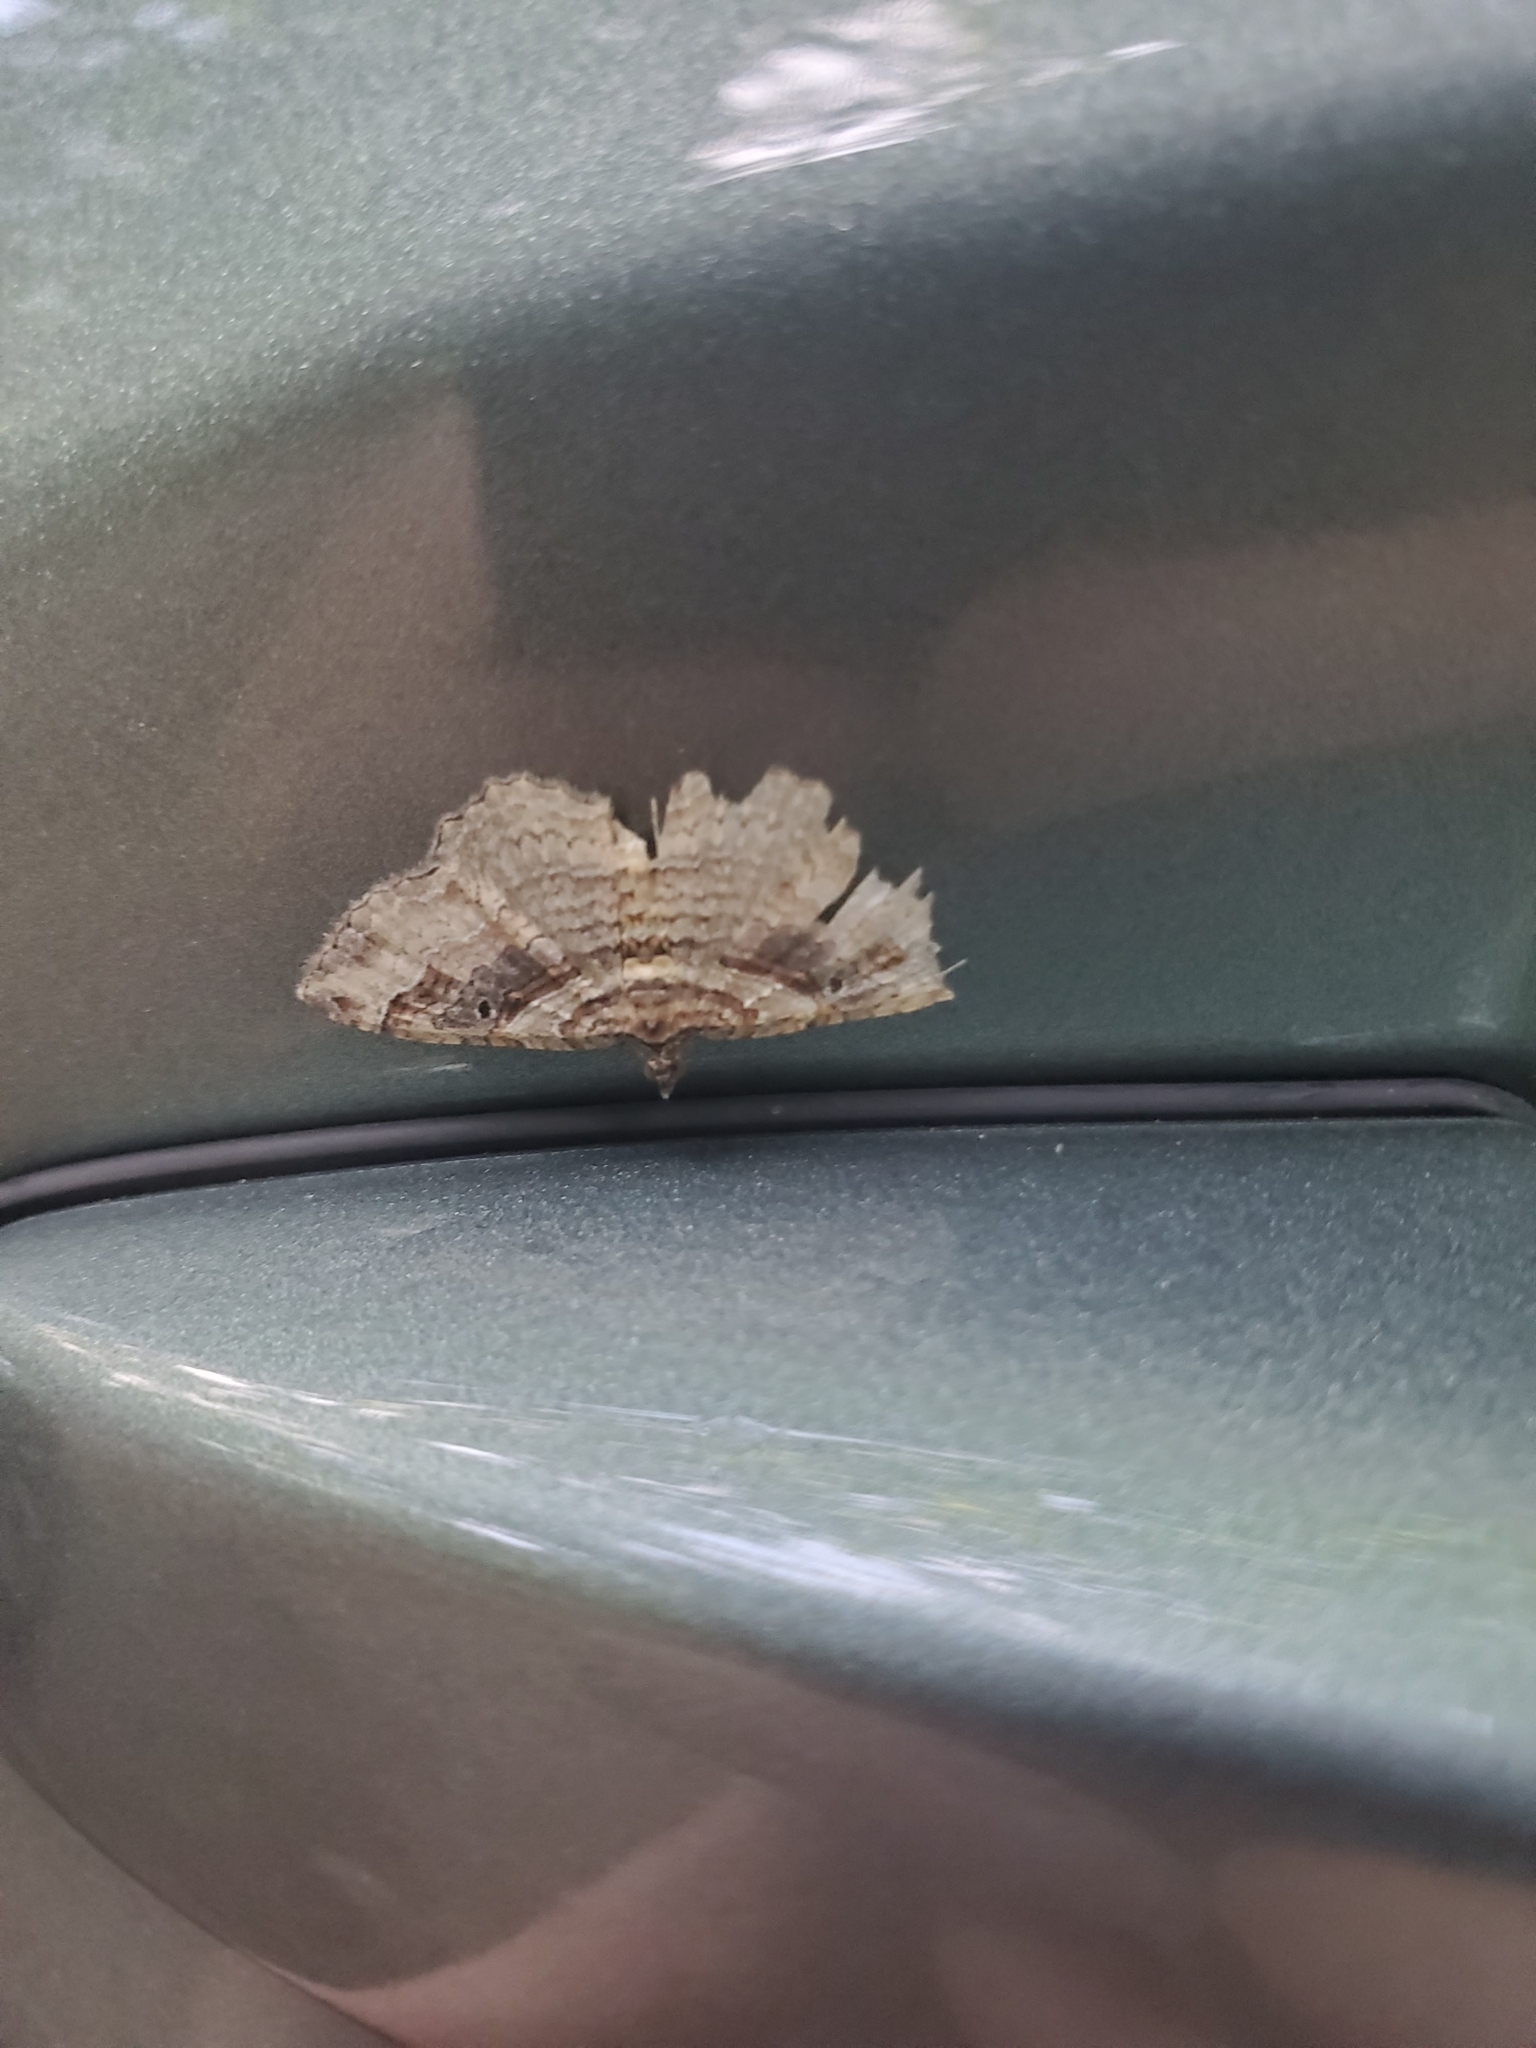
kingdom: Animalia
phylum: Arthropoda
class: Insecta
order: Lepidoptera
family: Geometridae
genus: Costaconvexa
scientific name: Costaconvexa centrostrigaria
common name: Bent-line carpet
